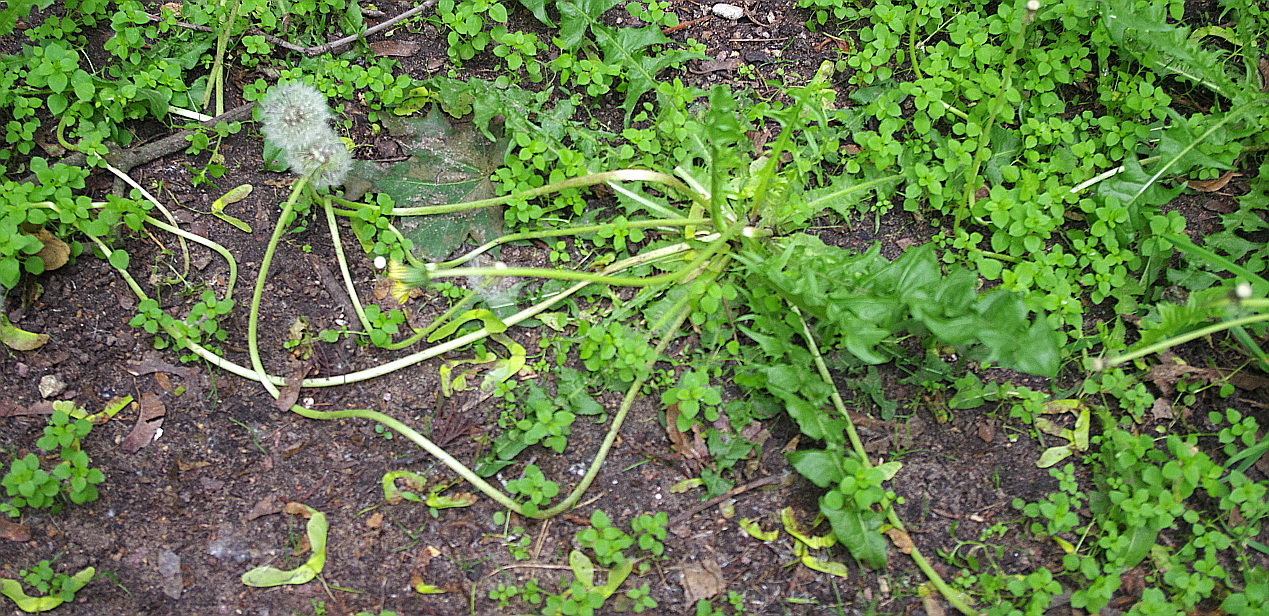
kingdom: Plantae
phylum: Tracheophyta
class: Magnoliopsida
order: Asterales
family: Asteraceae
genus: Taraxacum
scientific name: Taraxacum officinale
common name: Common dandelion
